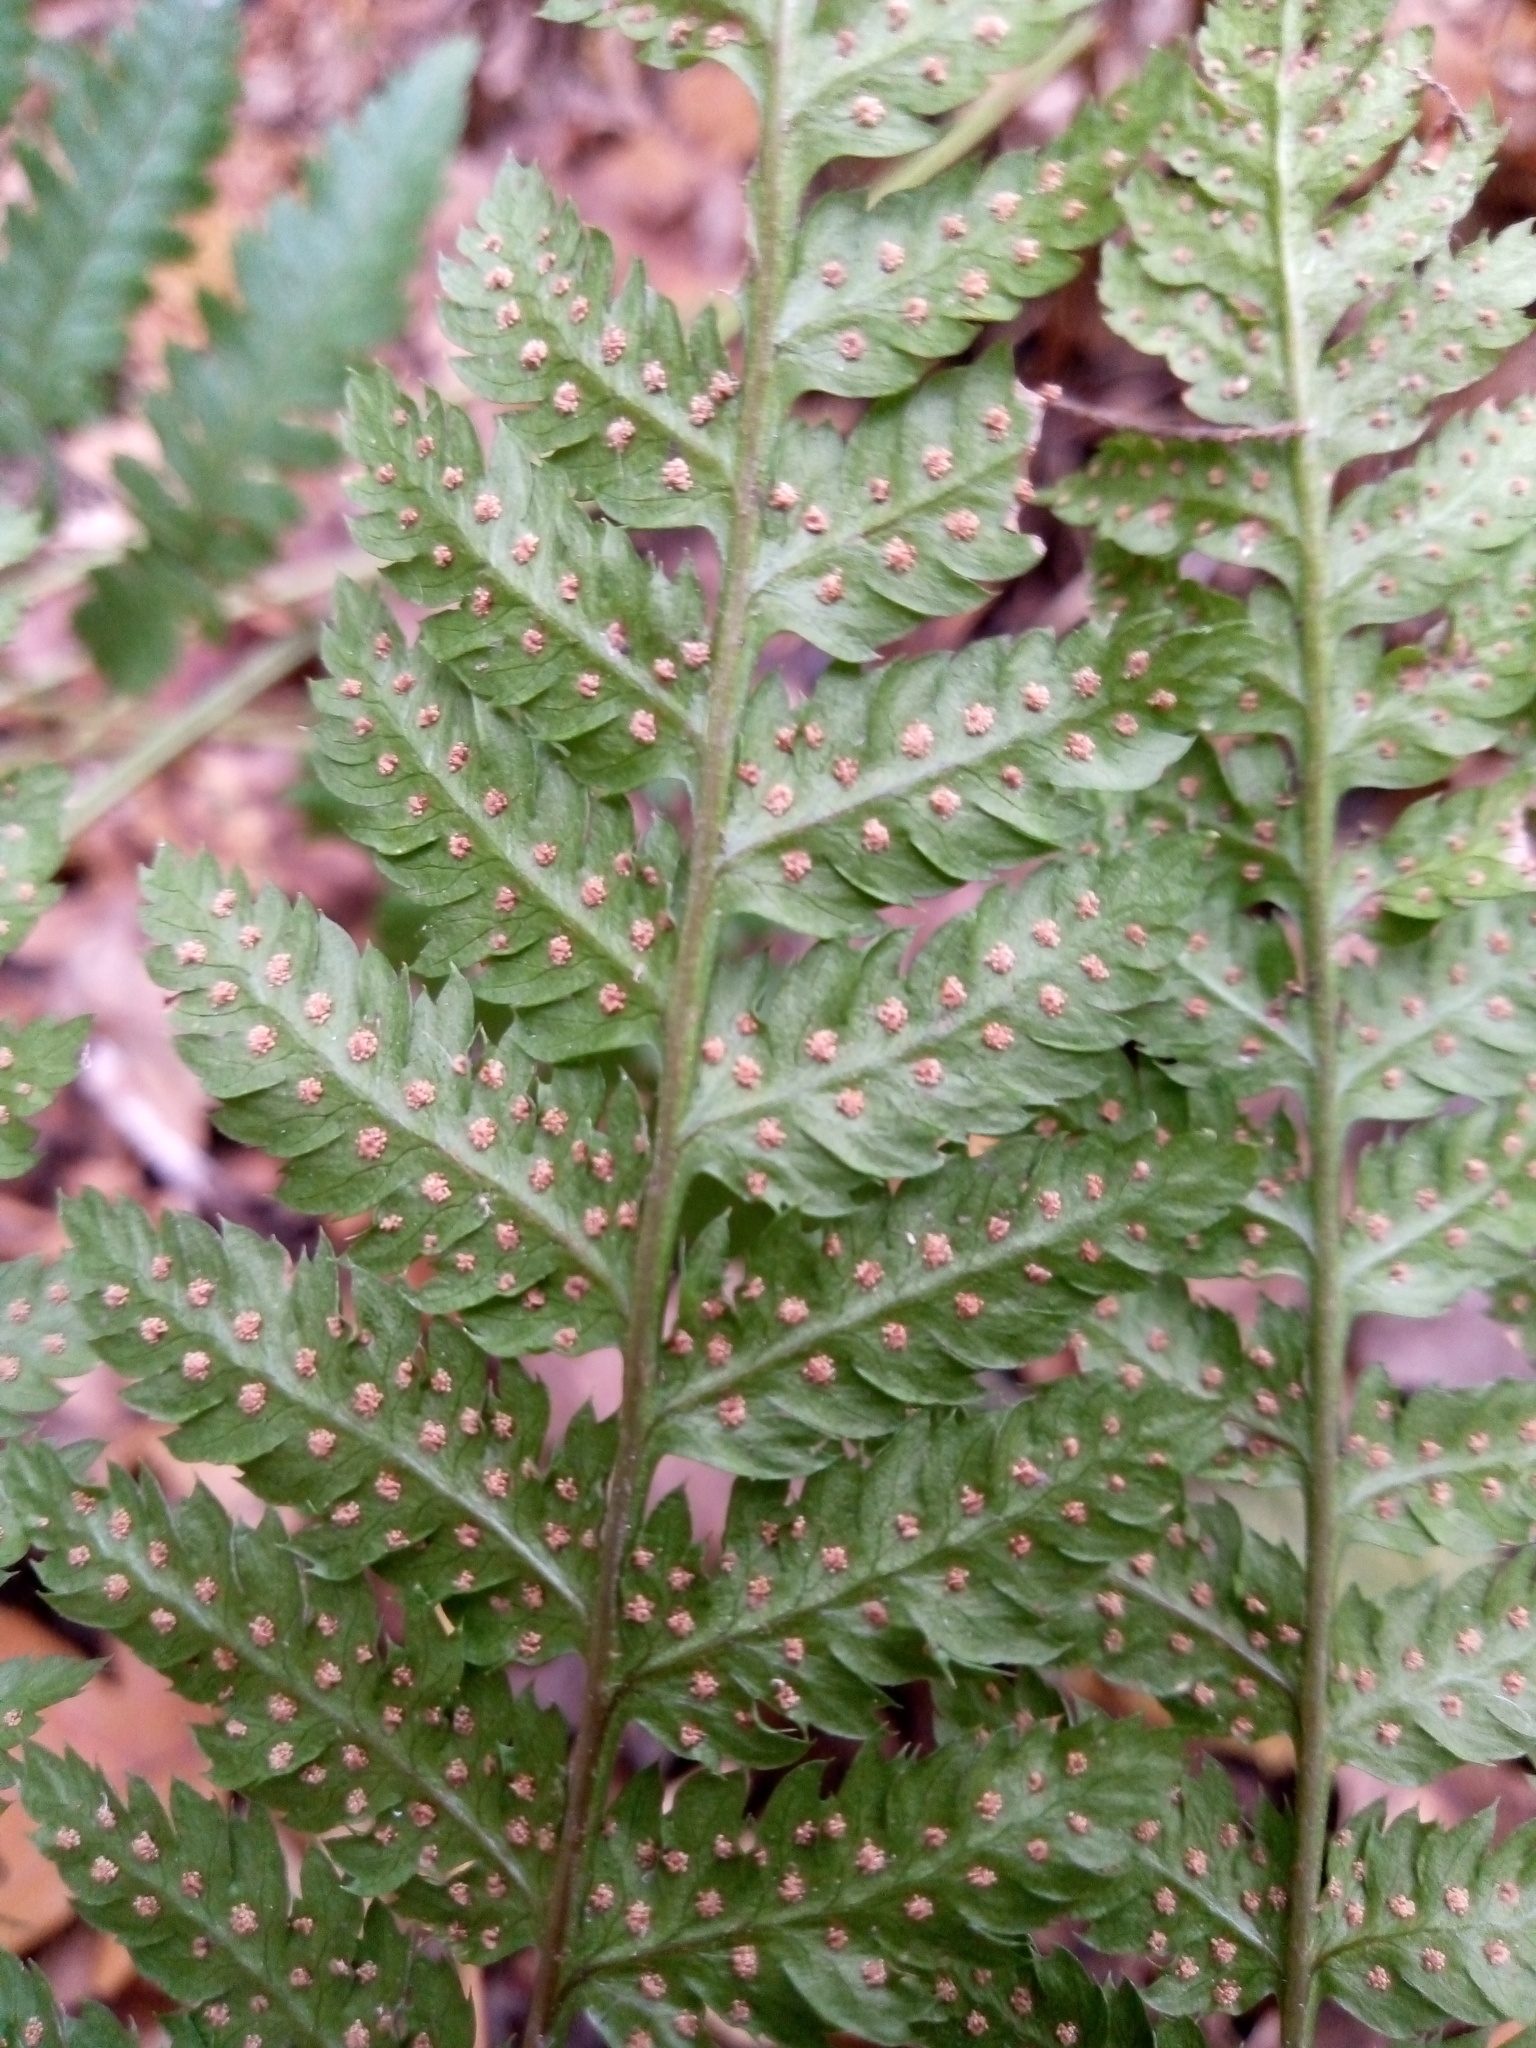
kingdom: Plantae
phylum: Tracheophyta
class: Polypodiopsida
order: Polypodiales
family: Dryopteridaceae
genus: Dryopteris
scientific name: Dryopteris carthusiana
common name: Narrow buckler-fern
